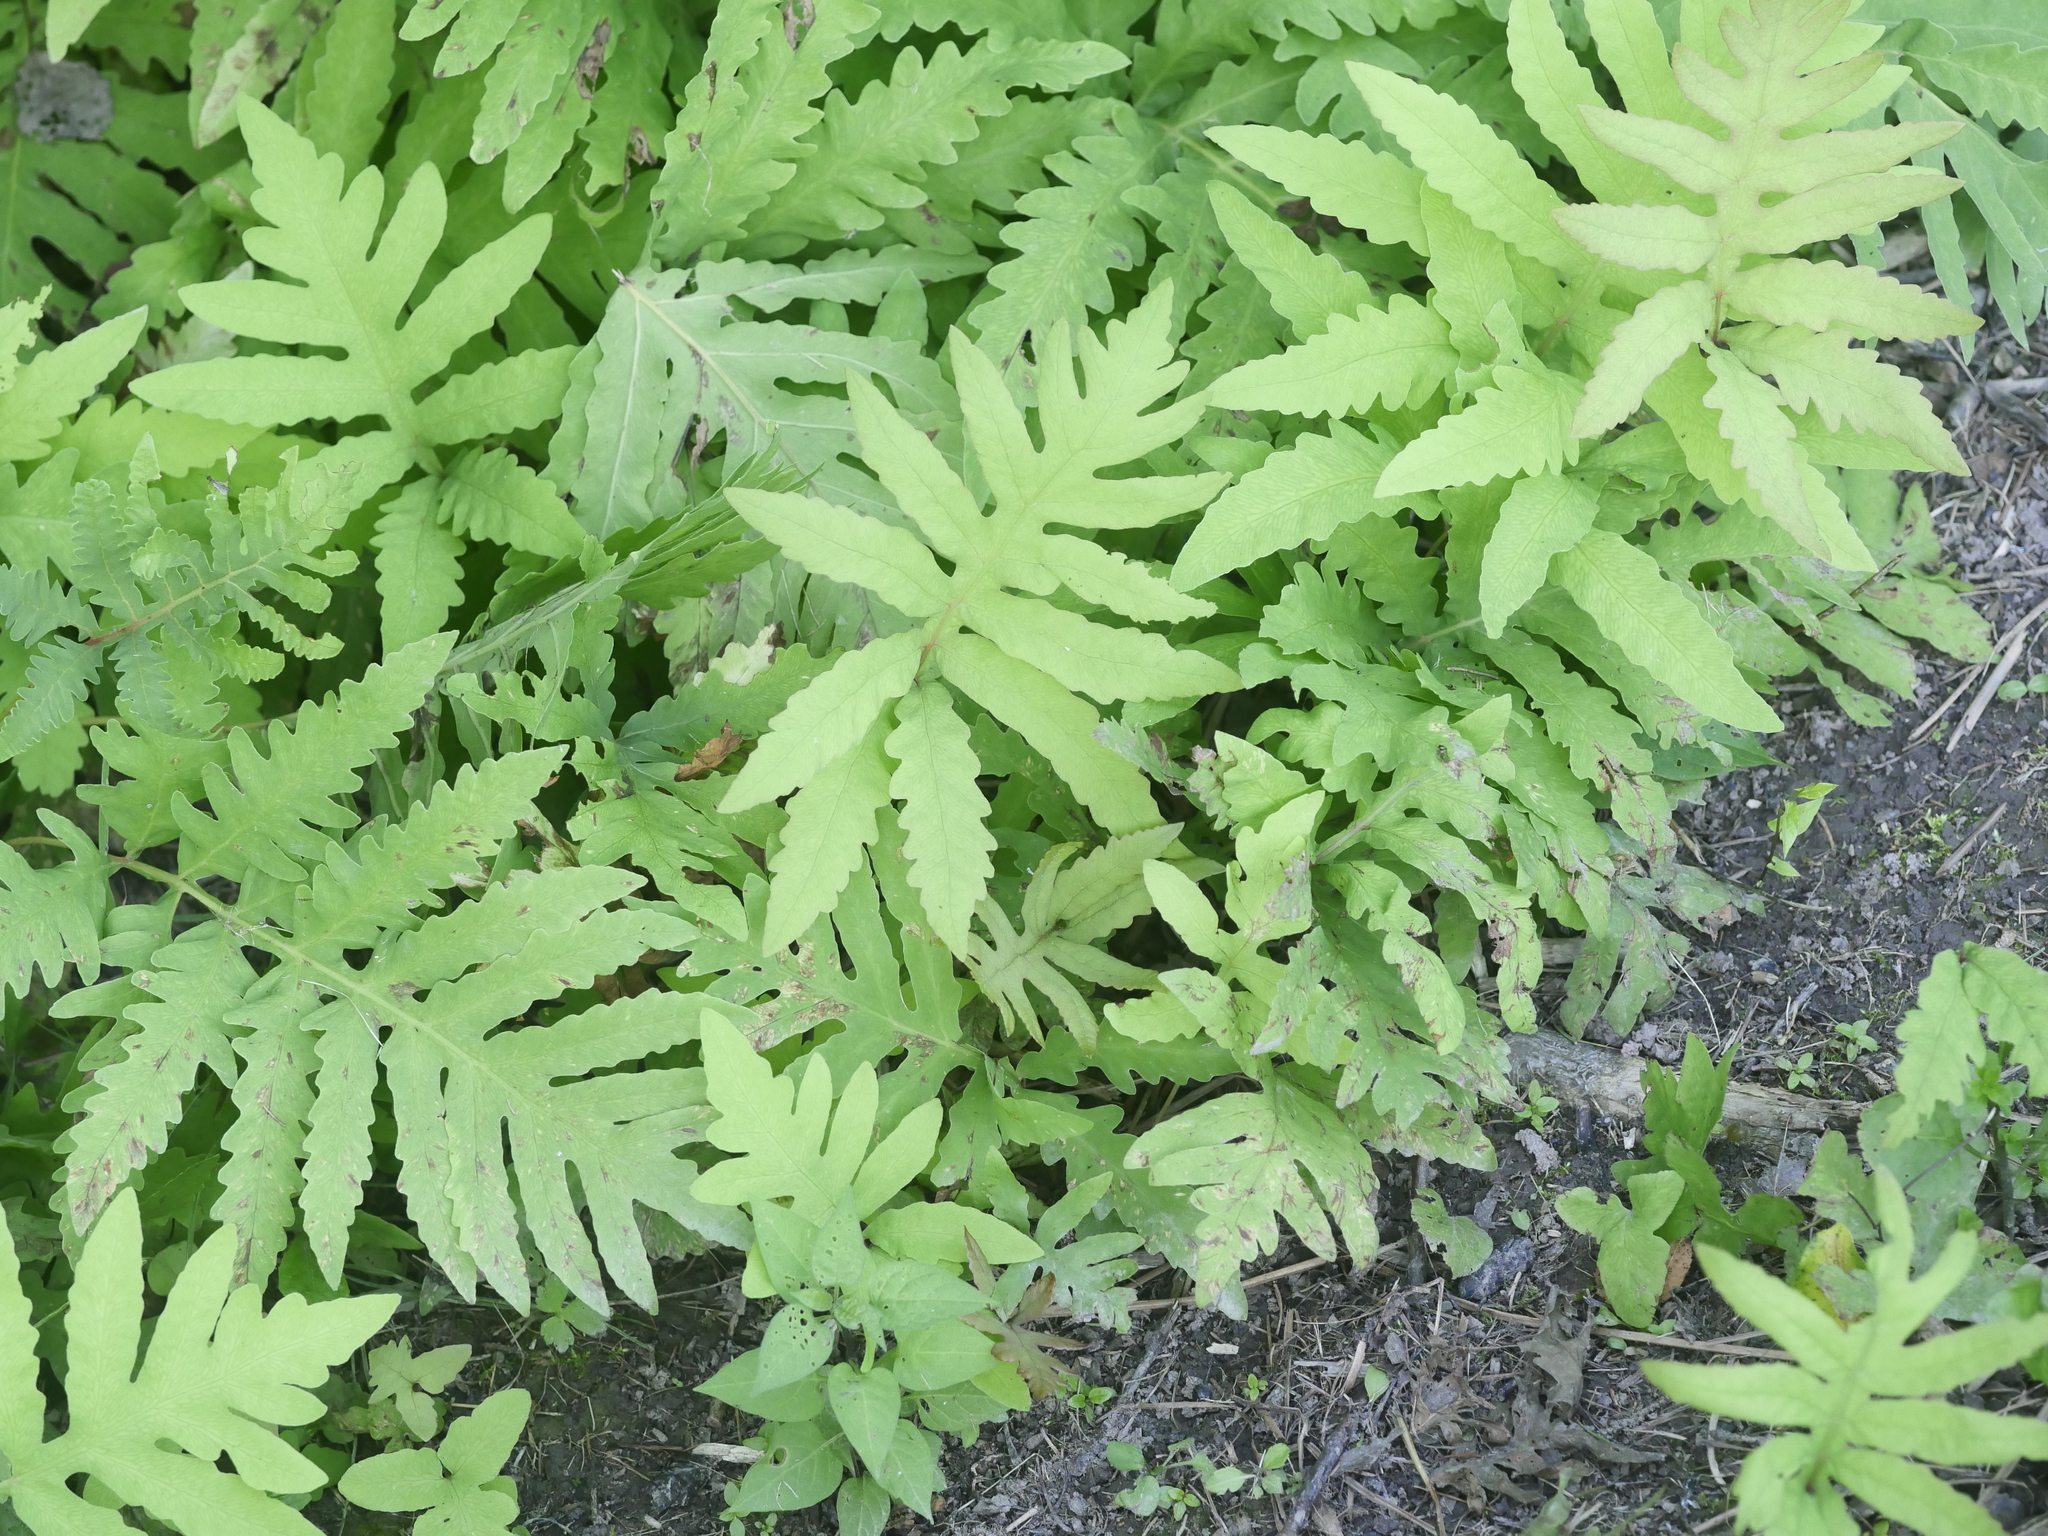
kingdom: Plantae
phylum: Tracheophyta
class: Polypodiopsida
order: Polypodiales
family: Onocleaceae
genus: Onoclea
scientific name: Onoclea sensibilis
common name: Sensitive fern
